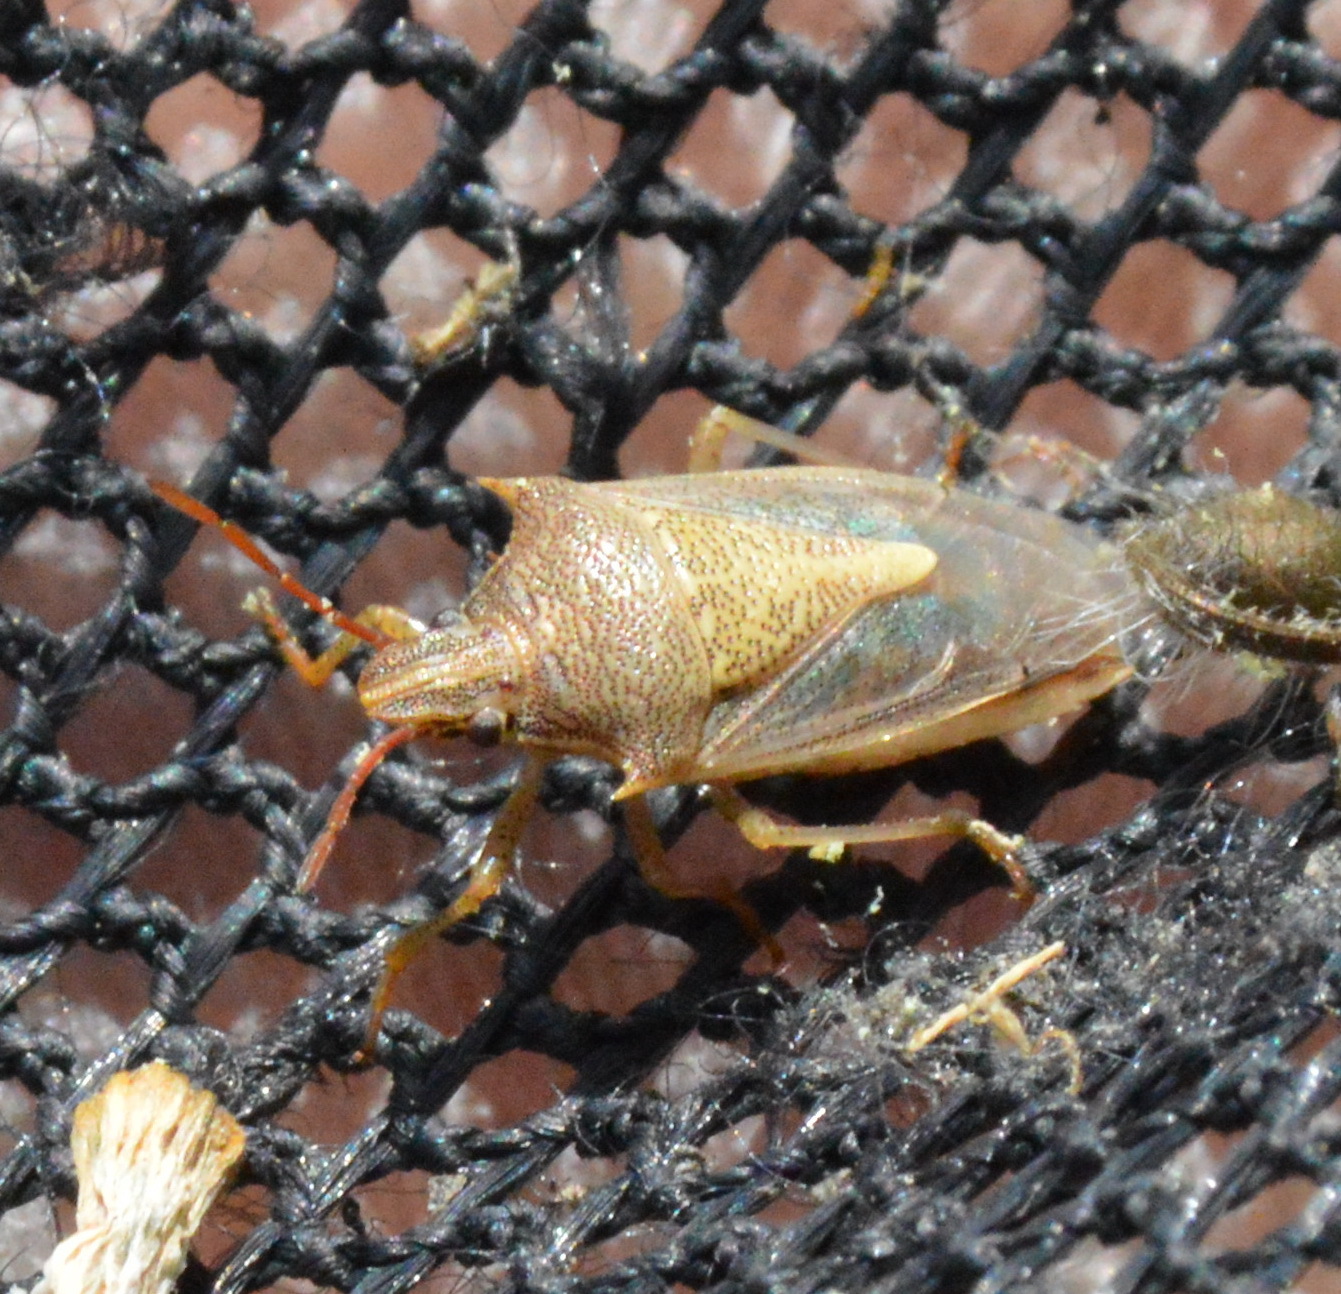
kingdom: Animalia
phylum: Arthropoda
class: Insecta
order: Hemiptera
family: Pentatomidae
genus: Oebalus
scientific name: Oebalus pugnax
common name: Rice stink bug
